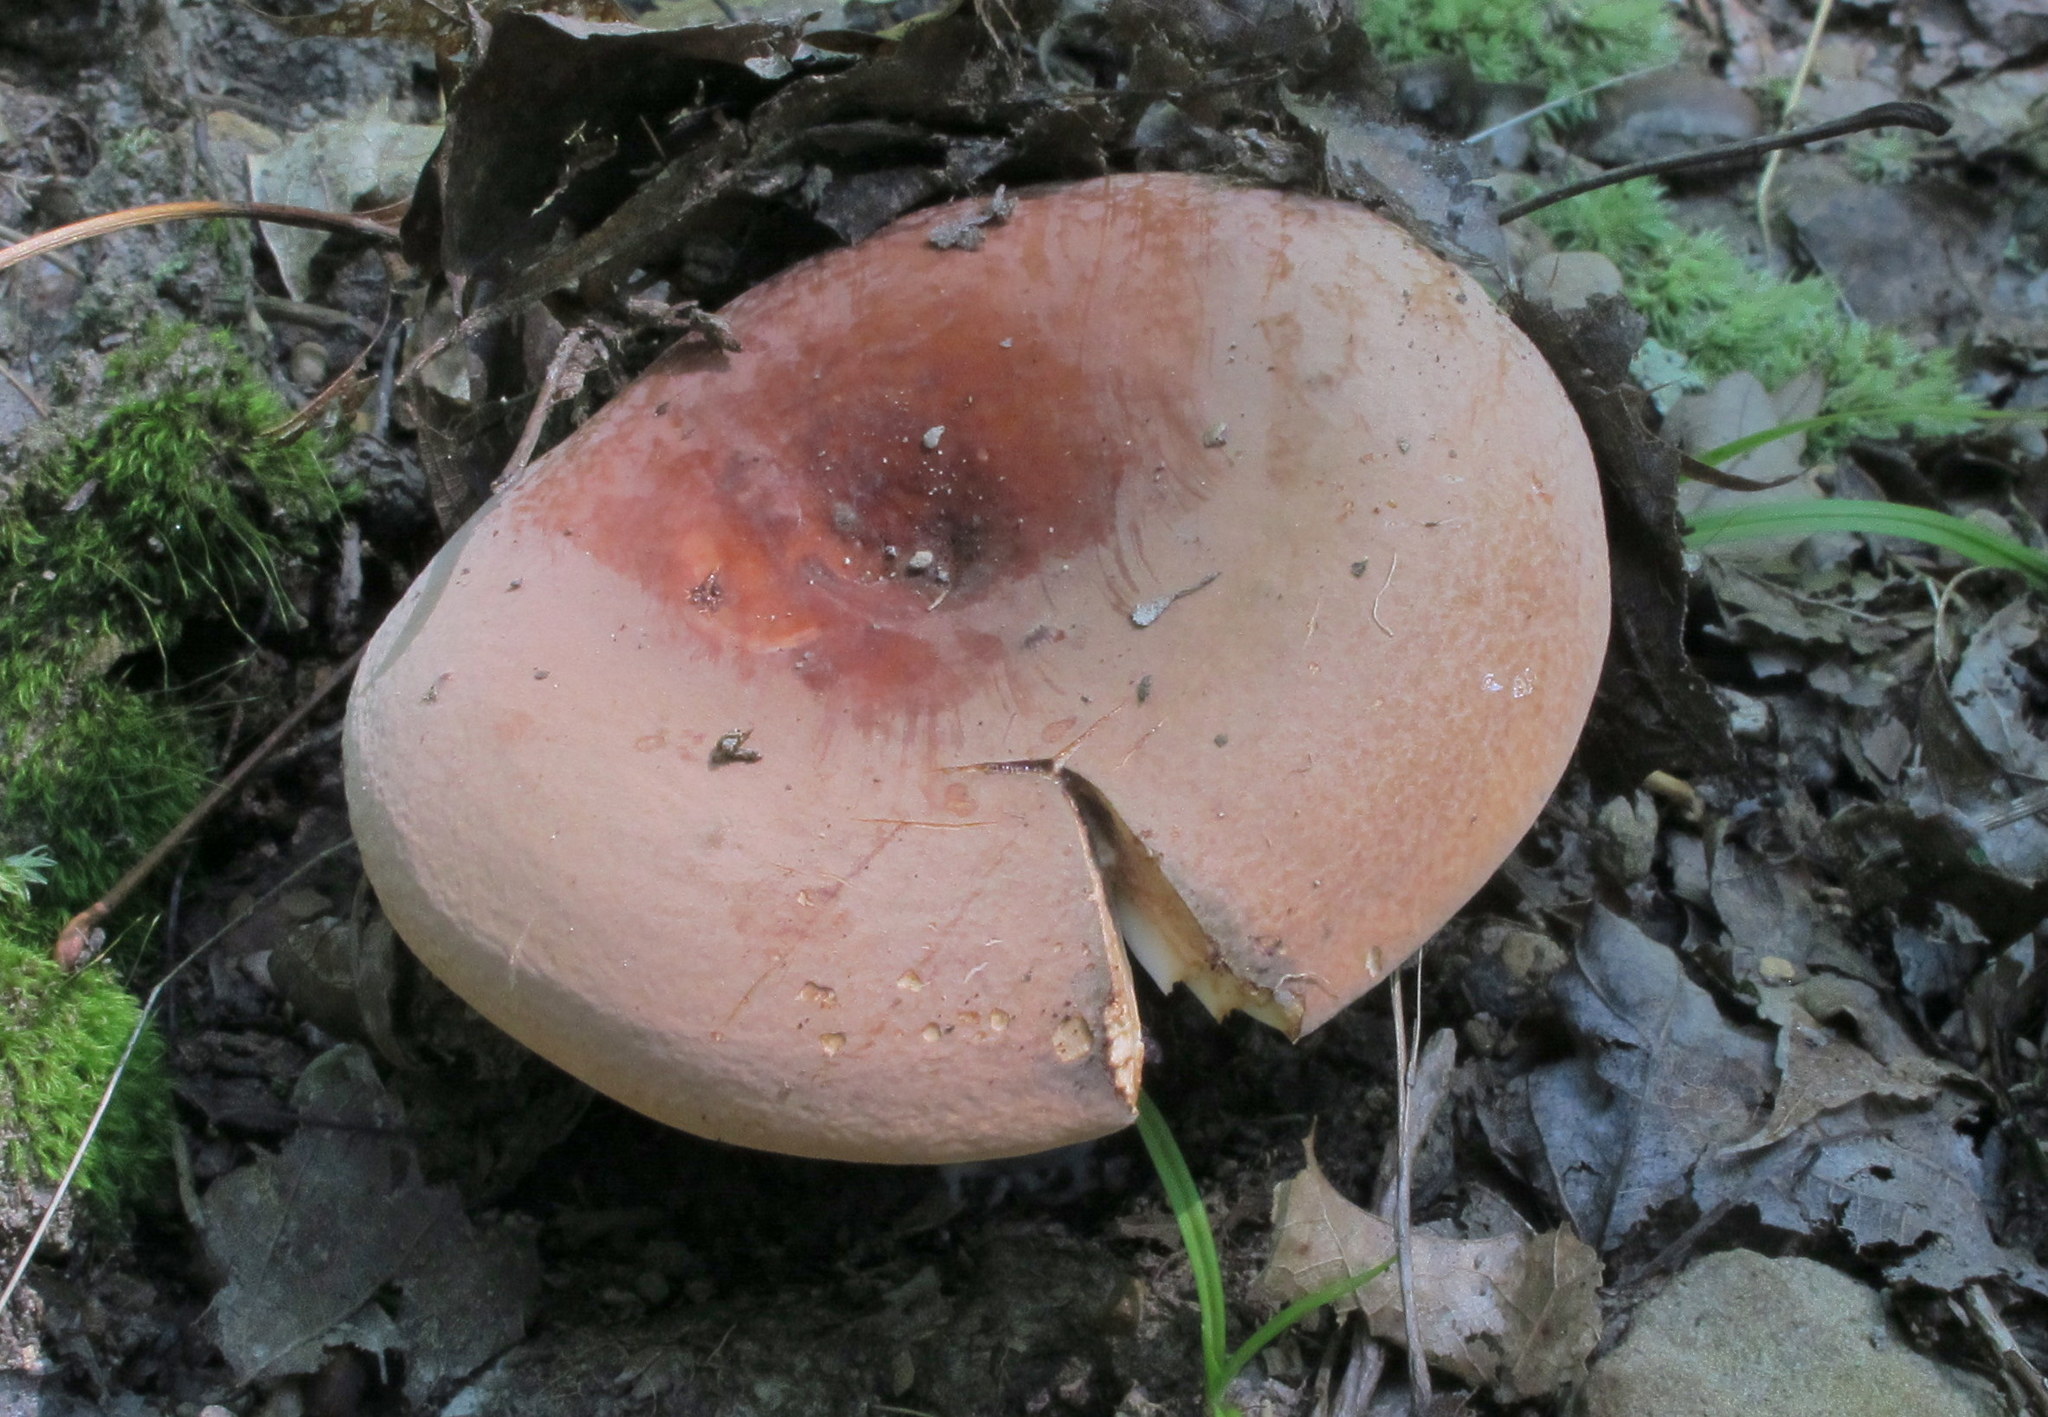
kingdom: Fungi
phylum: Basidiomycota
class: Agaricomycetes
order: Russulales
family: Russulaceae
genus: Lactifluus
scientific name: Lactifluus volemus
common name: Fishy milkcap
